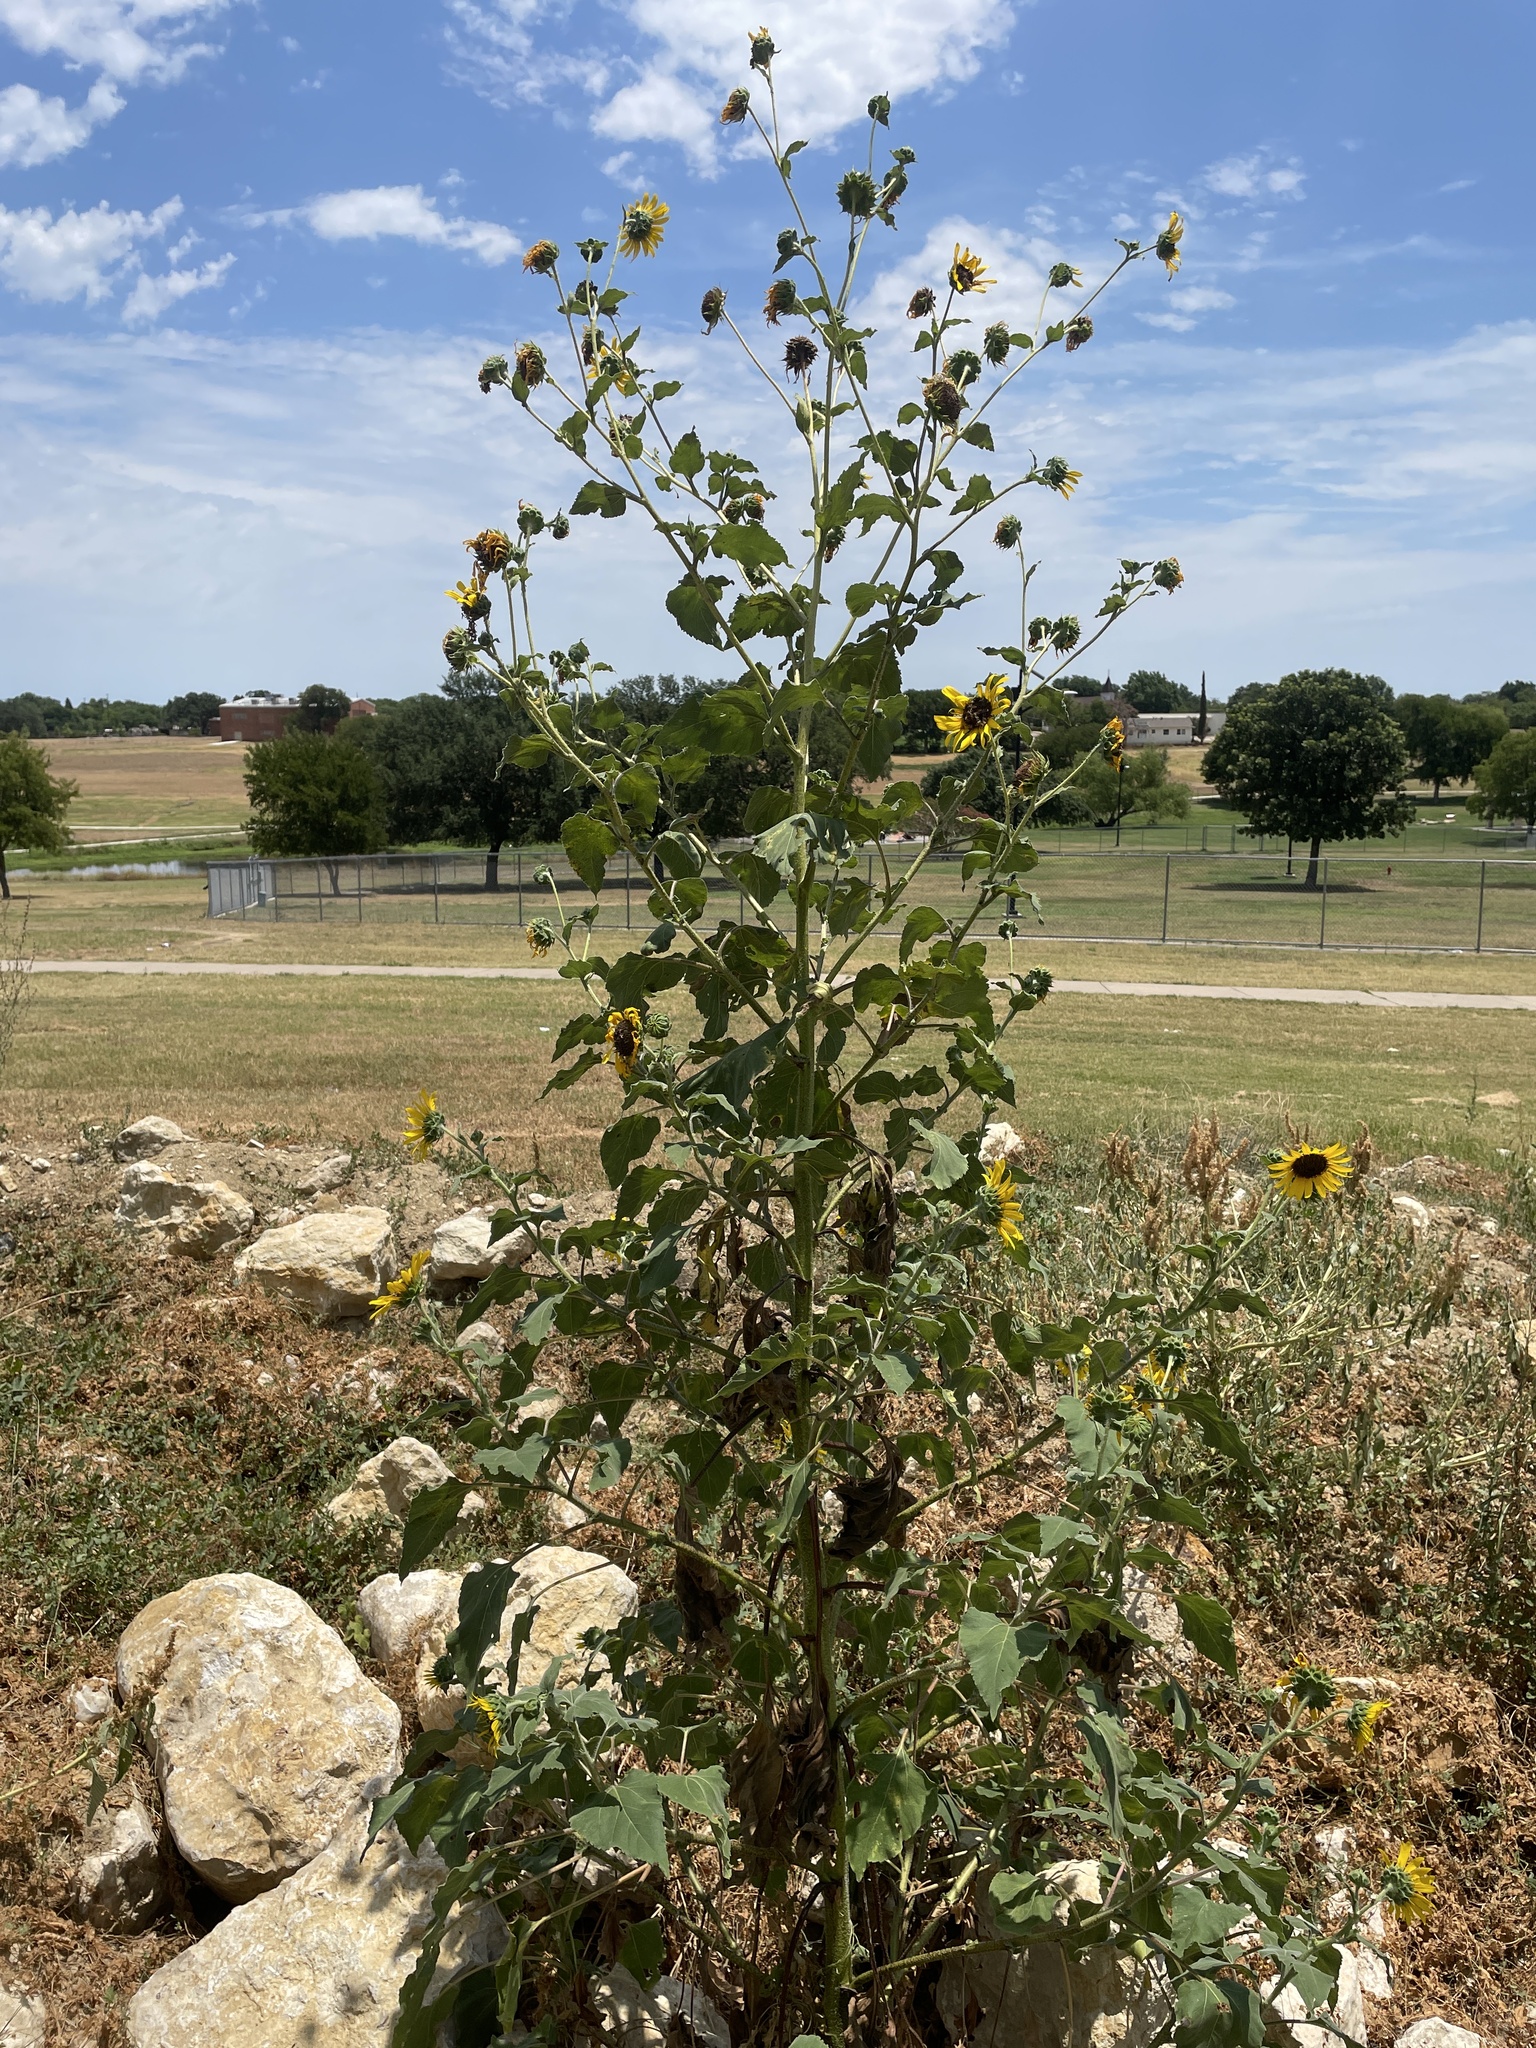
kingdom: Plantae
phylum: Tracheophyta
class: Magnoliopsida
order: Asterales
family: Asteraceae
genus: Helianthus
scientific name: Helianthus annuus
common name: Sunflower
